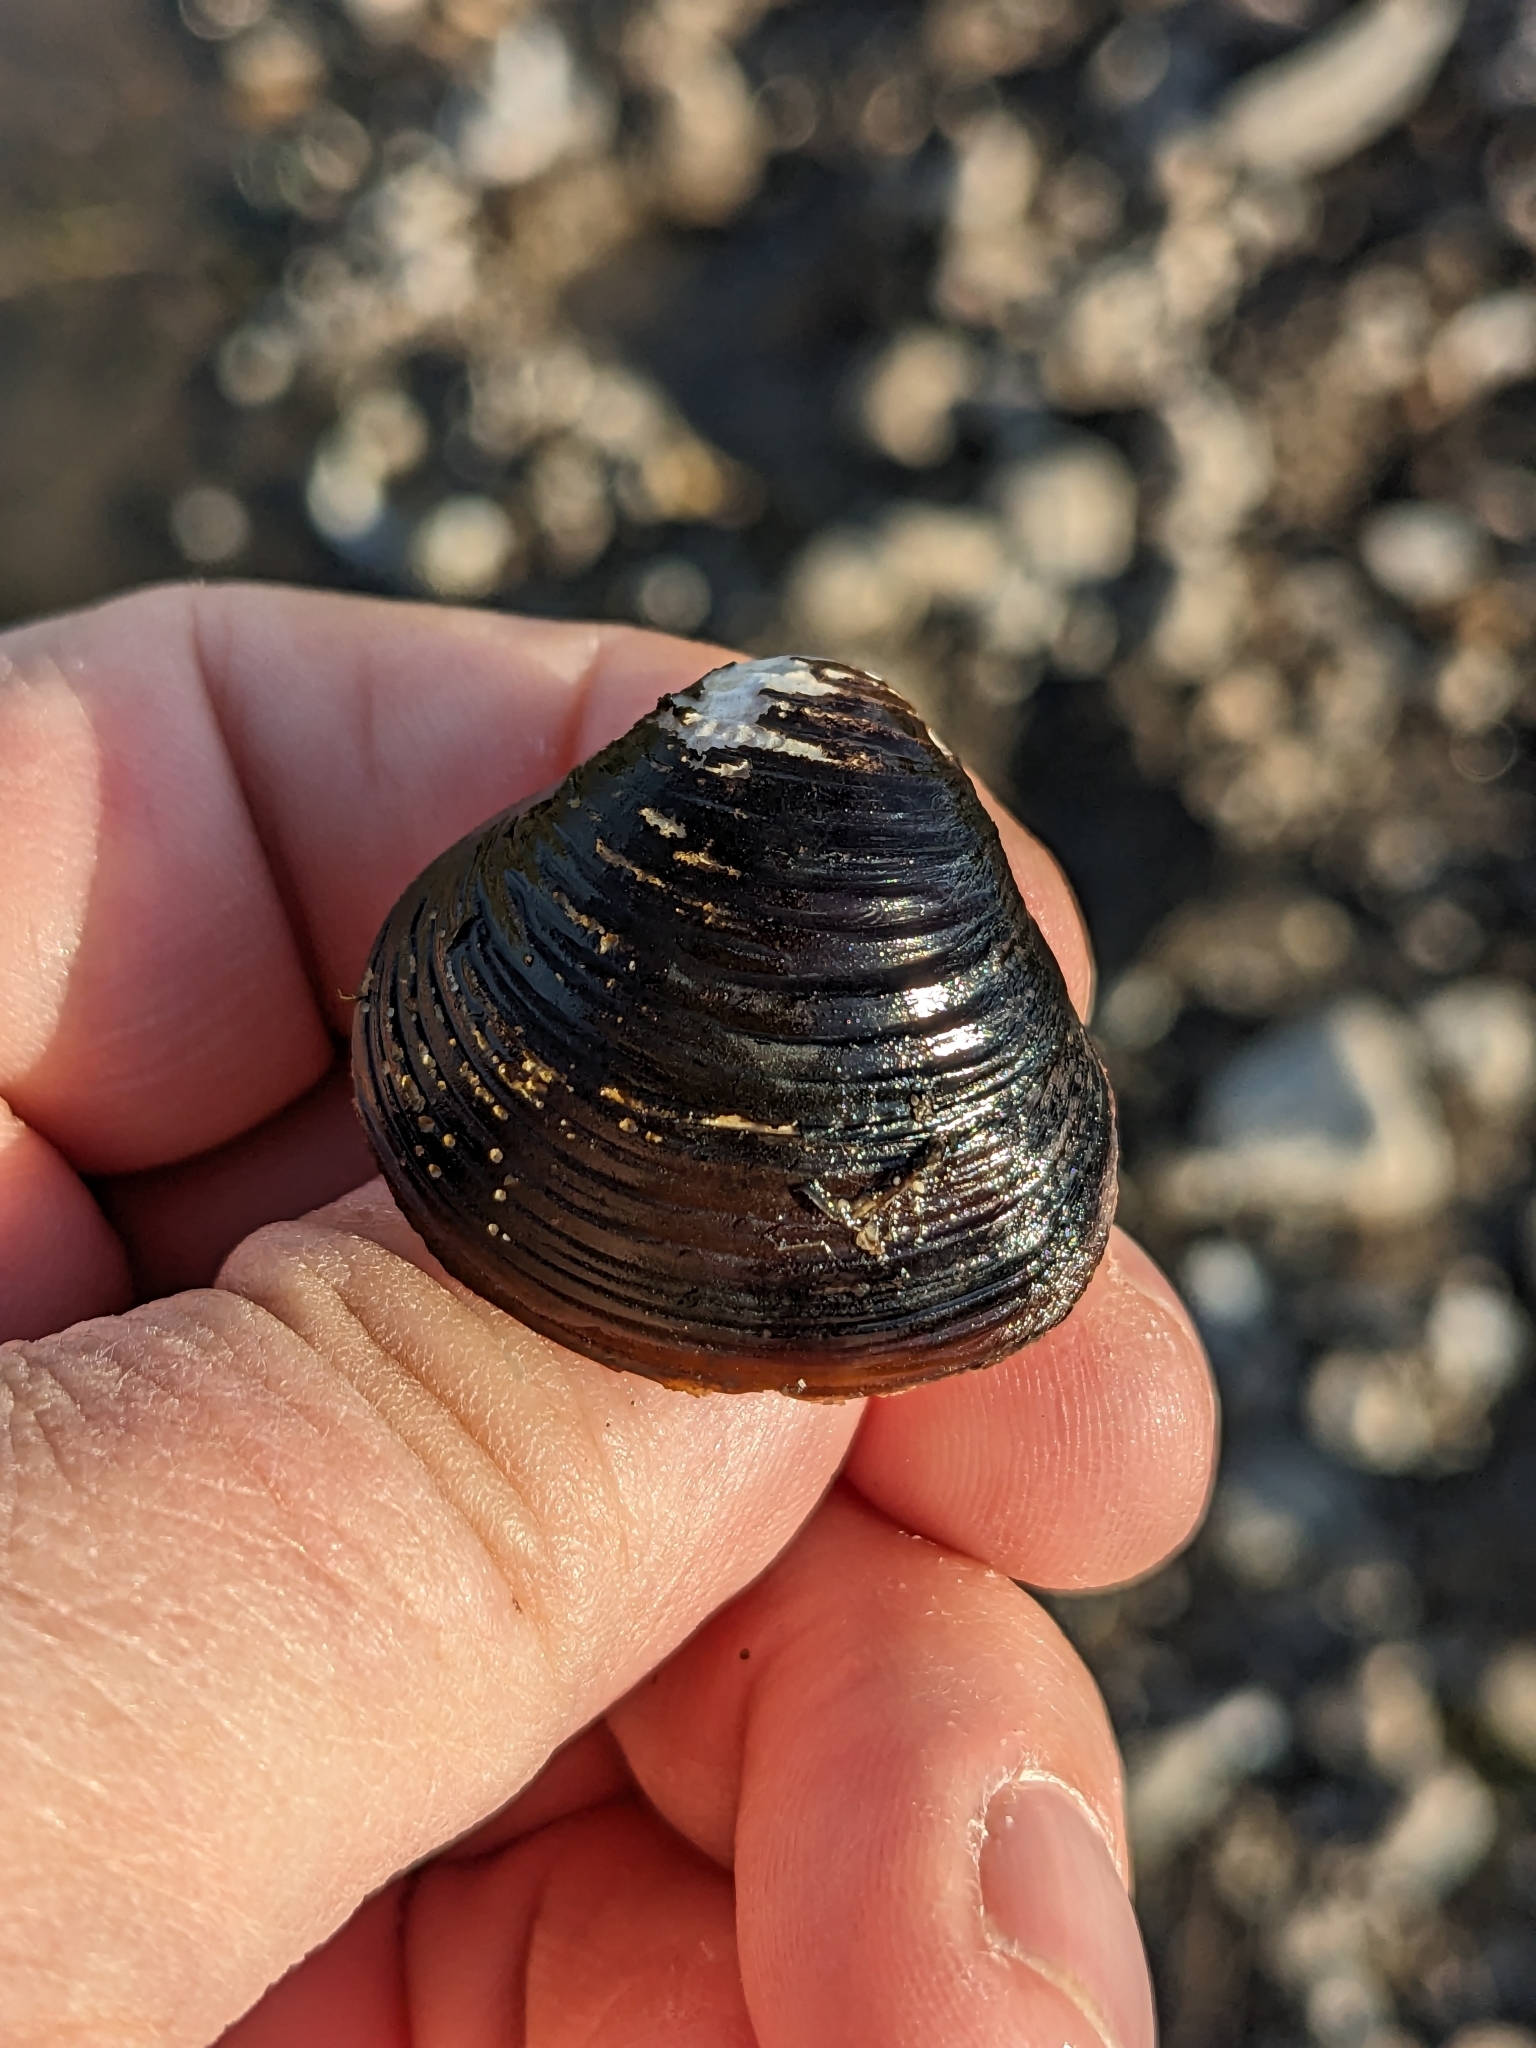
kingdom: Animalia
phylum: Mollusca
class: Bivalvia
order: Venerida
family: Cyrenidae
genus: Corbicula
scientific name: Corbicula fluminea
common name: Asian clam
